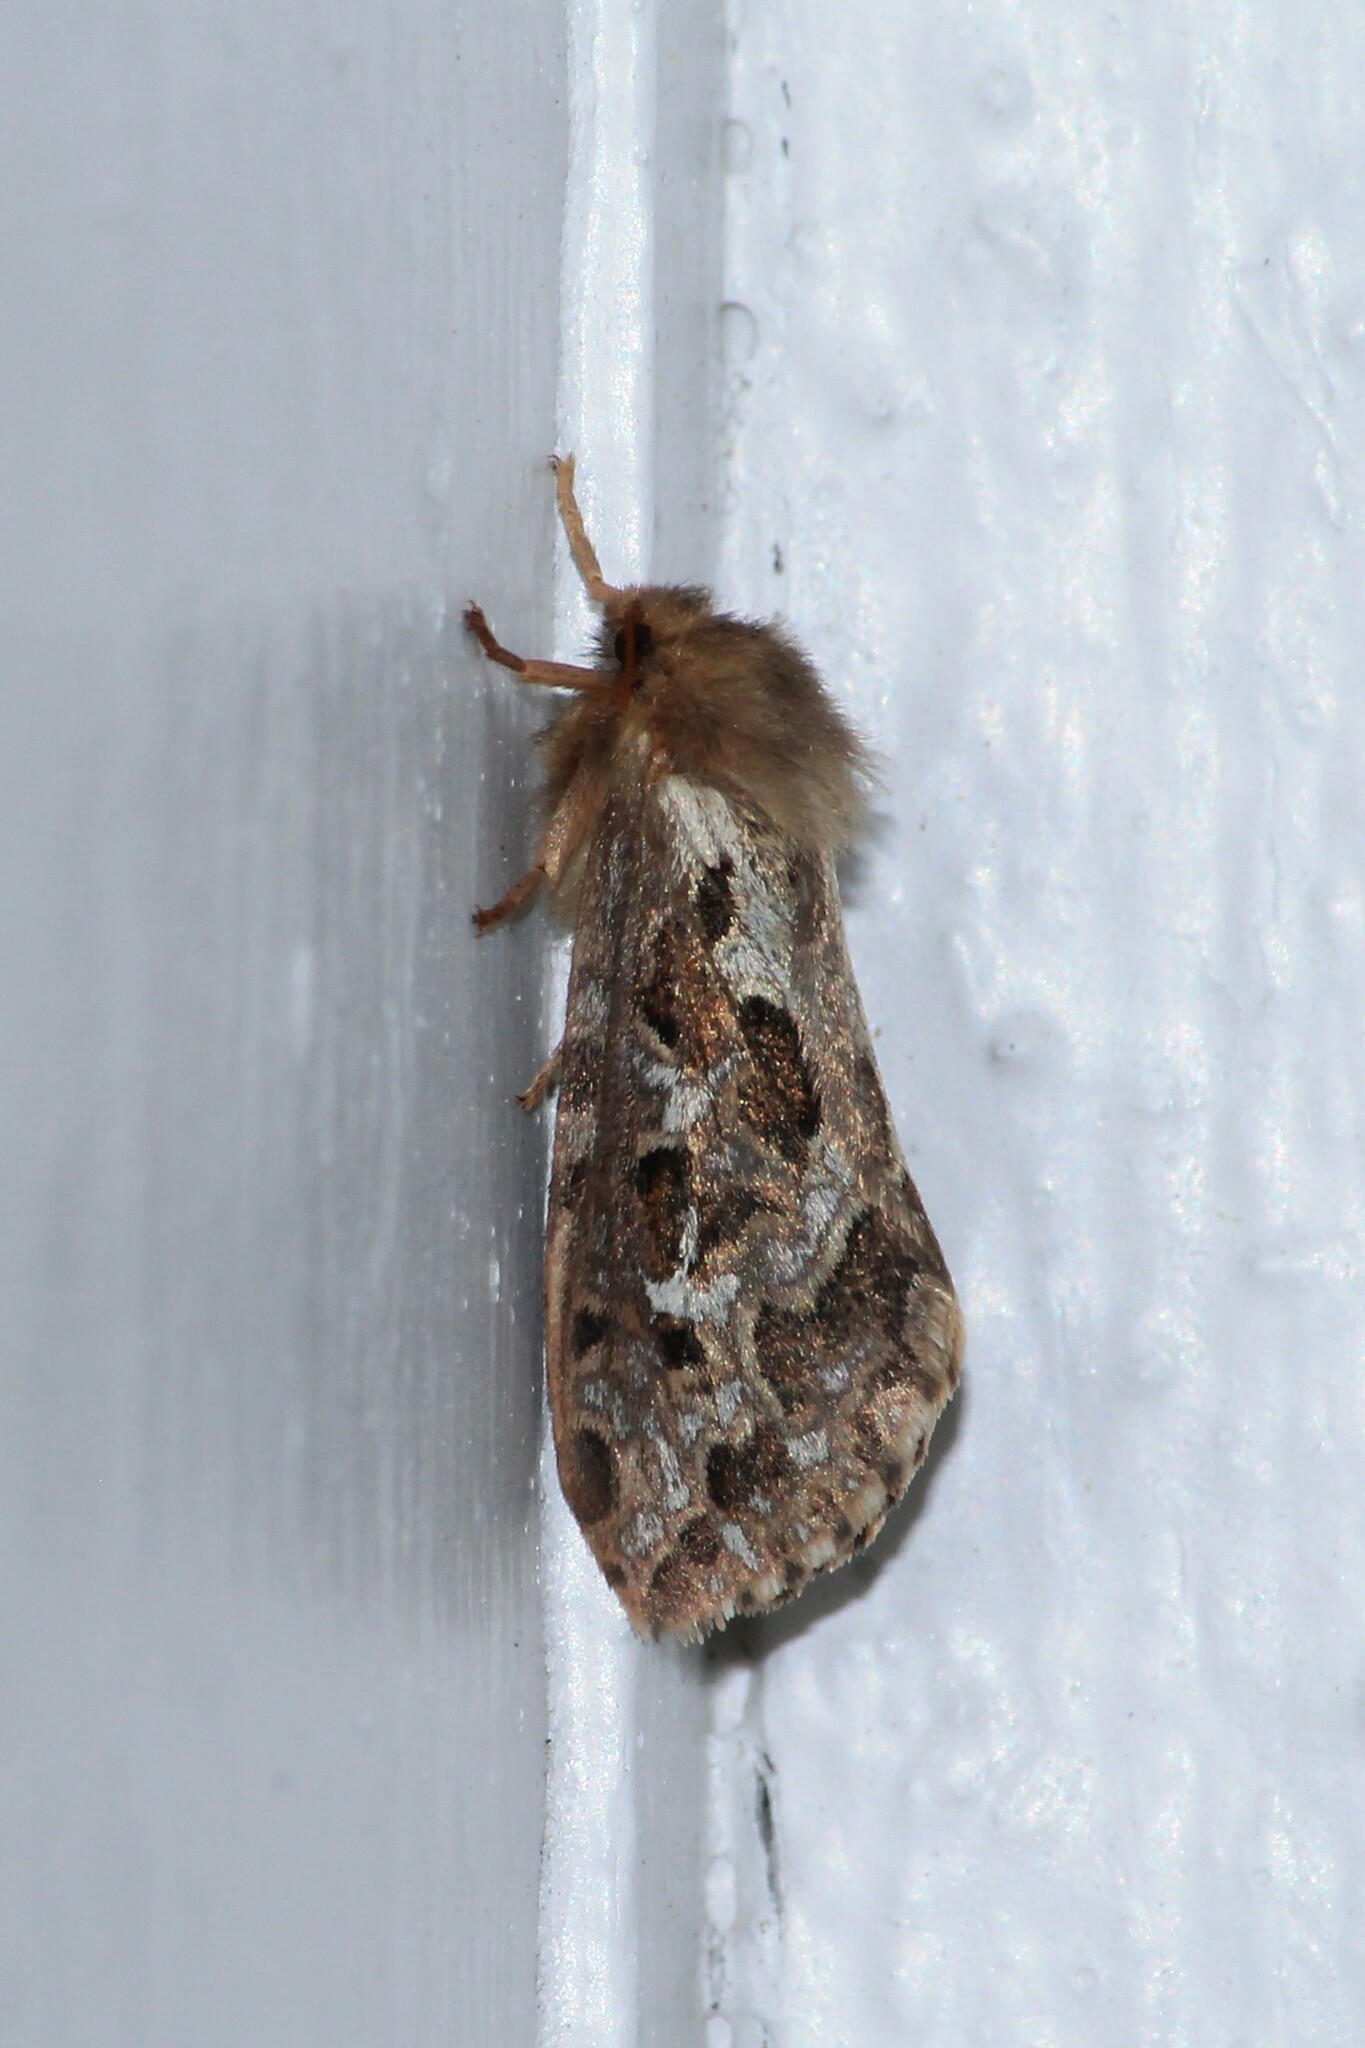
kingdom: Animalia
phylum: Arthropoda
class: Insecta
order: Lepidoptera
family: Hepialidae
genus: Korscheltellus
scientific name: Korscheltellus fusconebulosus
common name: Map-winged swift
